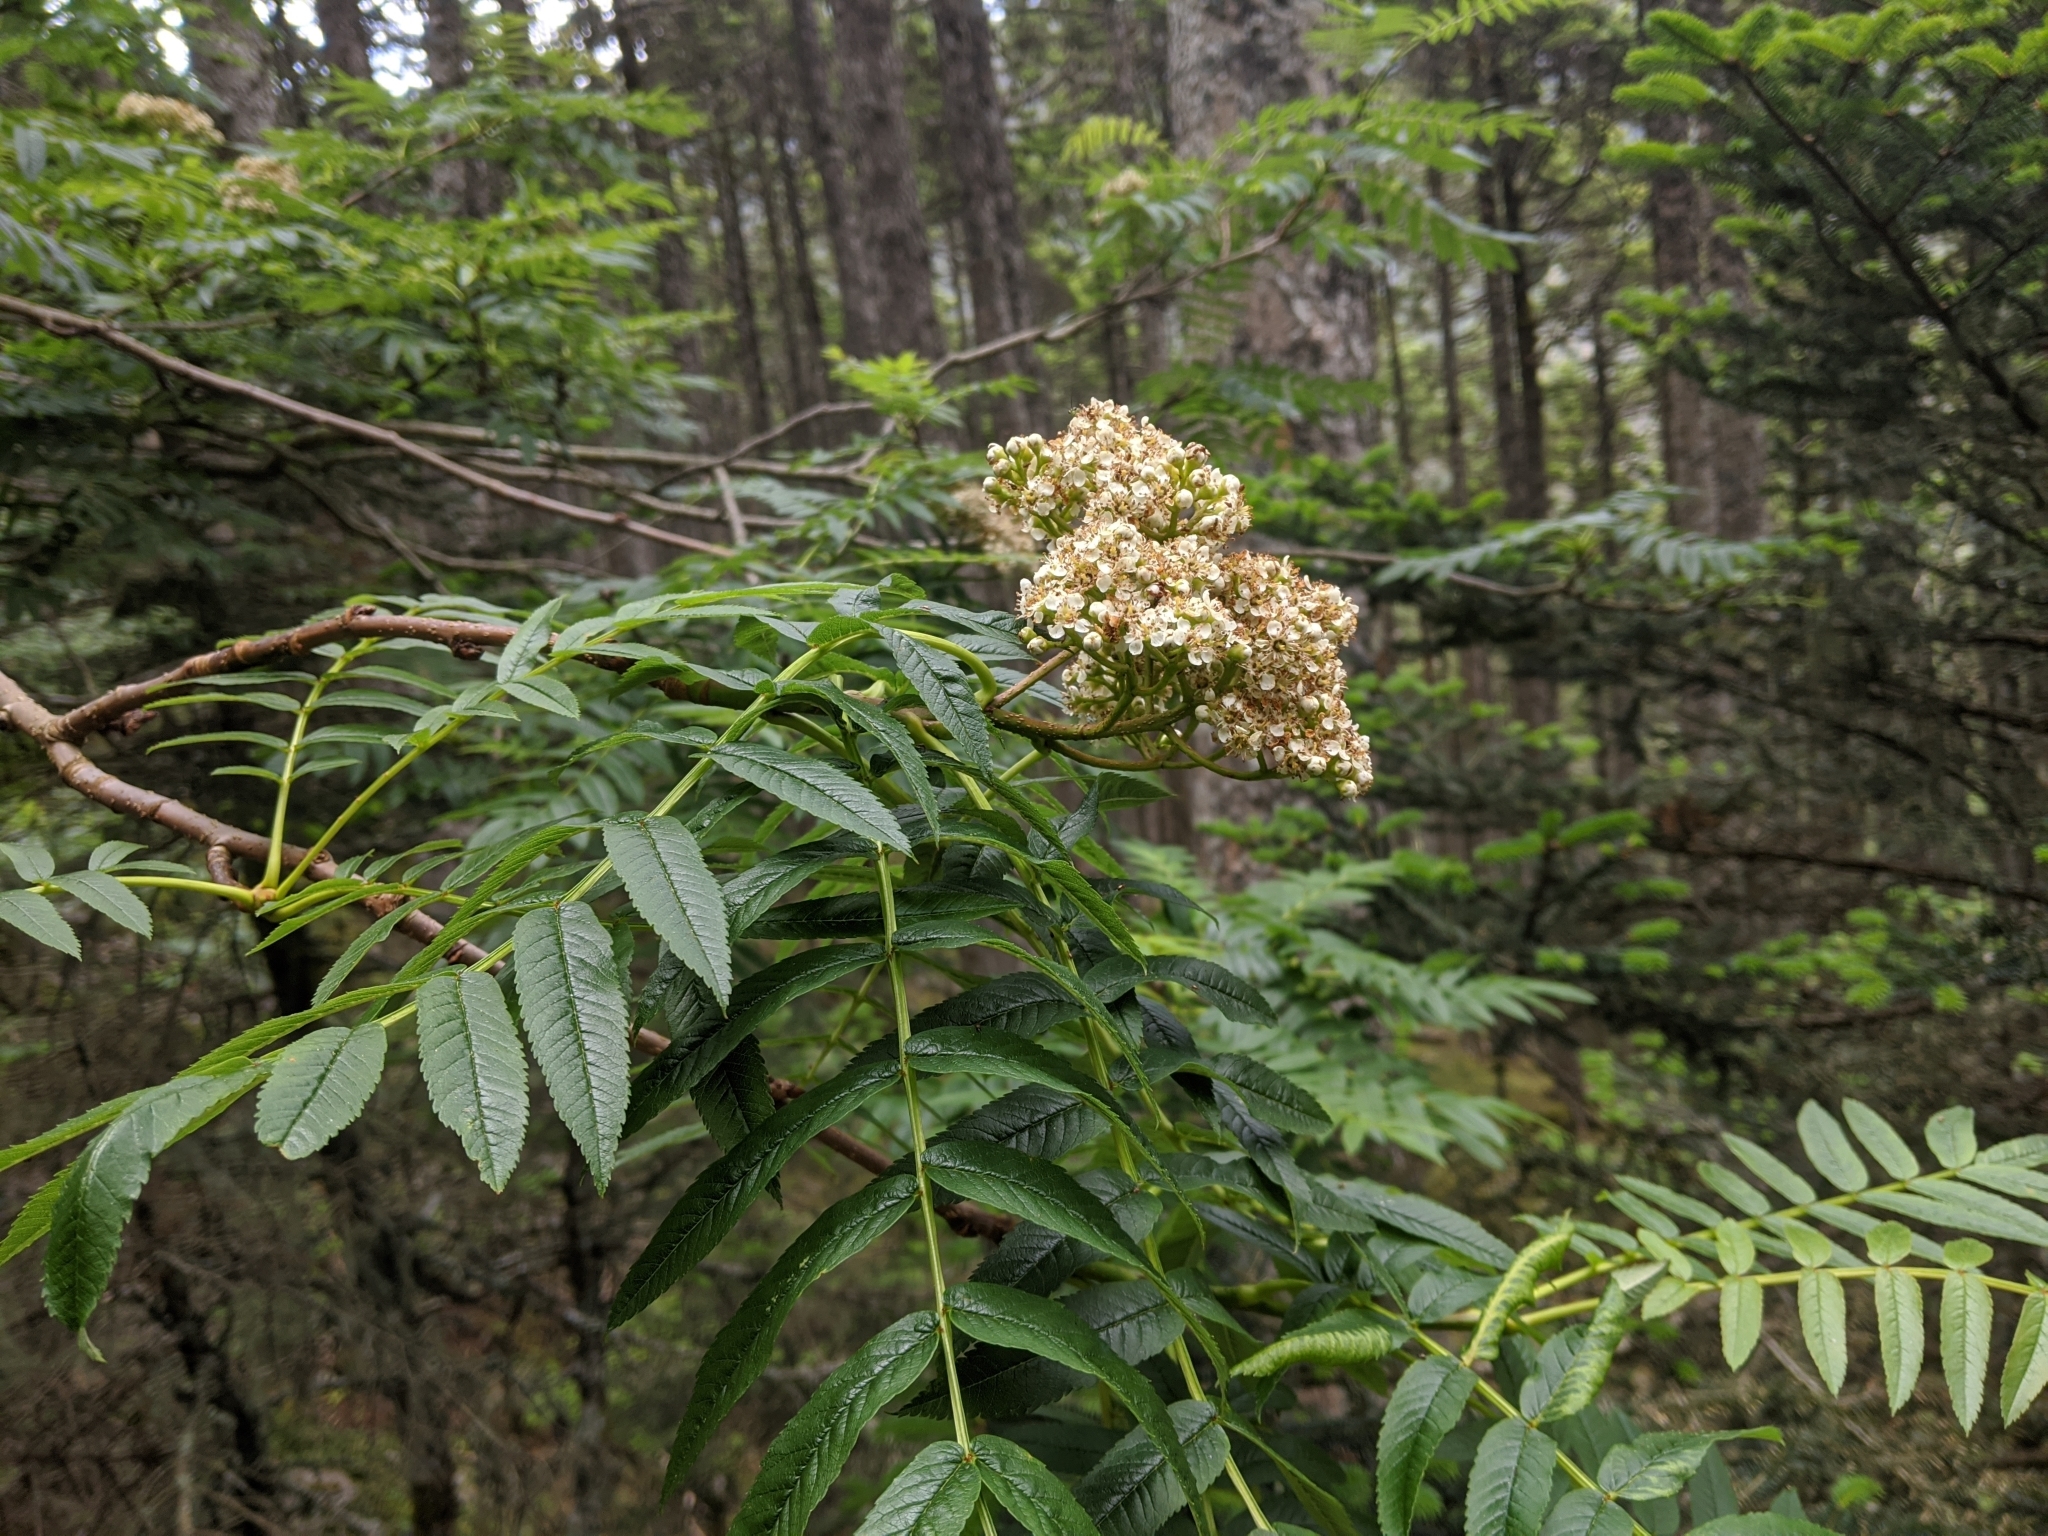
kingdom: Plantae
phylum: Tracheophyta
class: Magnoliopsida
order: Rosales
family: Rosaceae
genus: Sorbus
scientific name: Sorbus randaiensis
